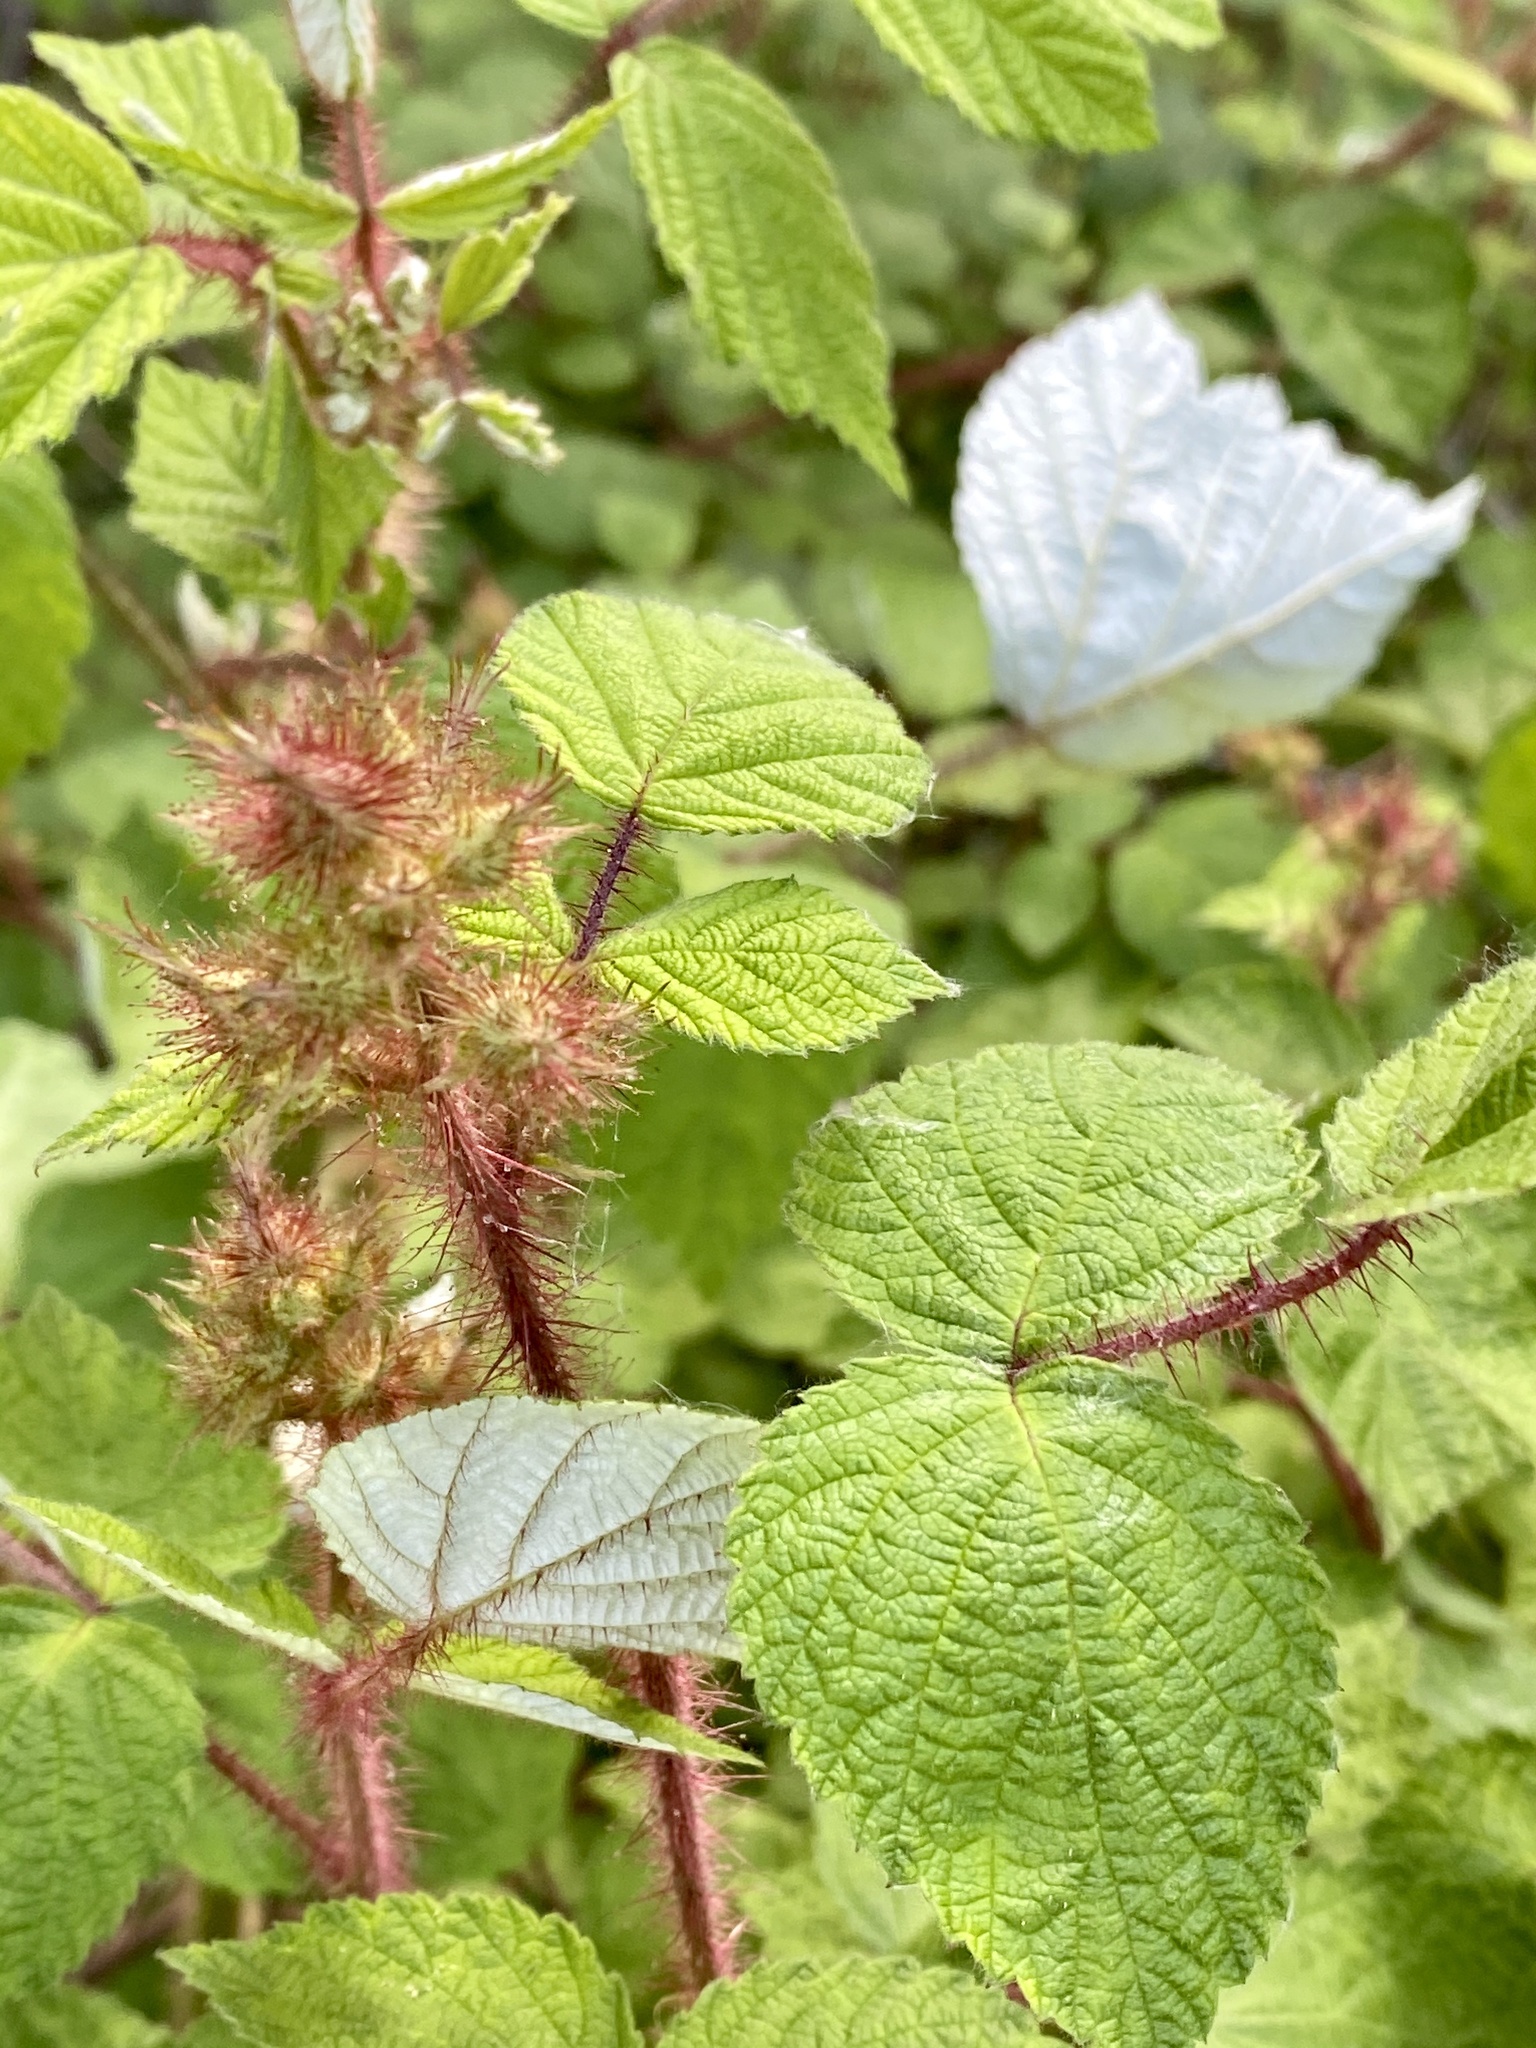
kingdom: Plantae
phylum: Tracheophyta
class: Magnoliopsida
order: Rosales
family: Rosaceae
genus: Rubus
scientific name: Rubus phoenicolasius
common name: Japanese wineberry
